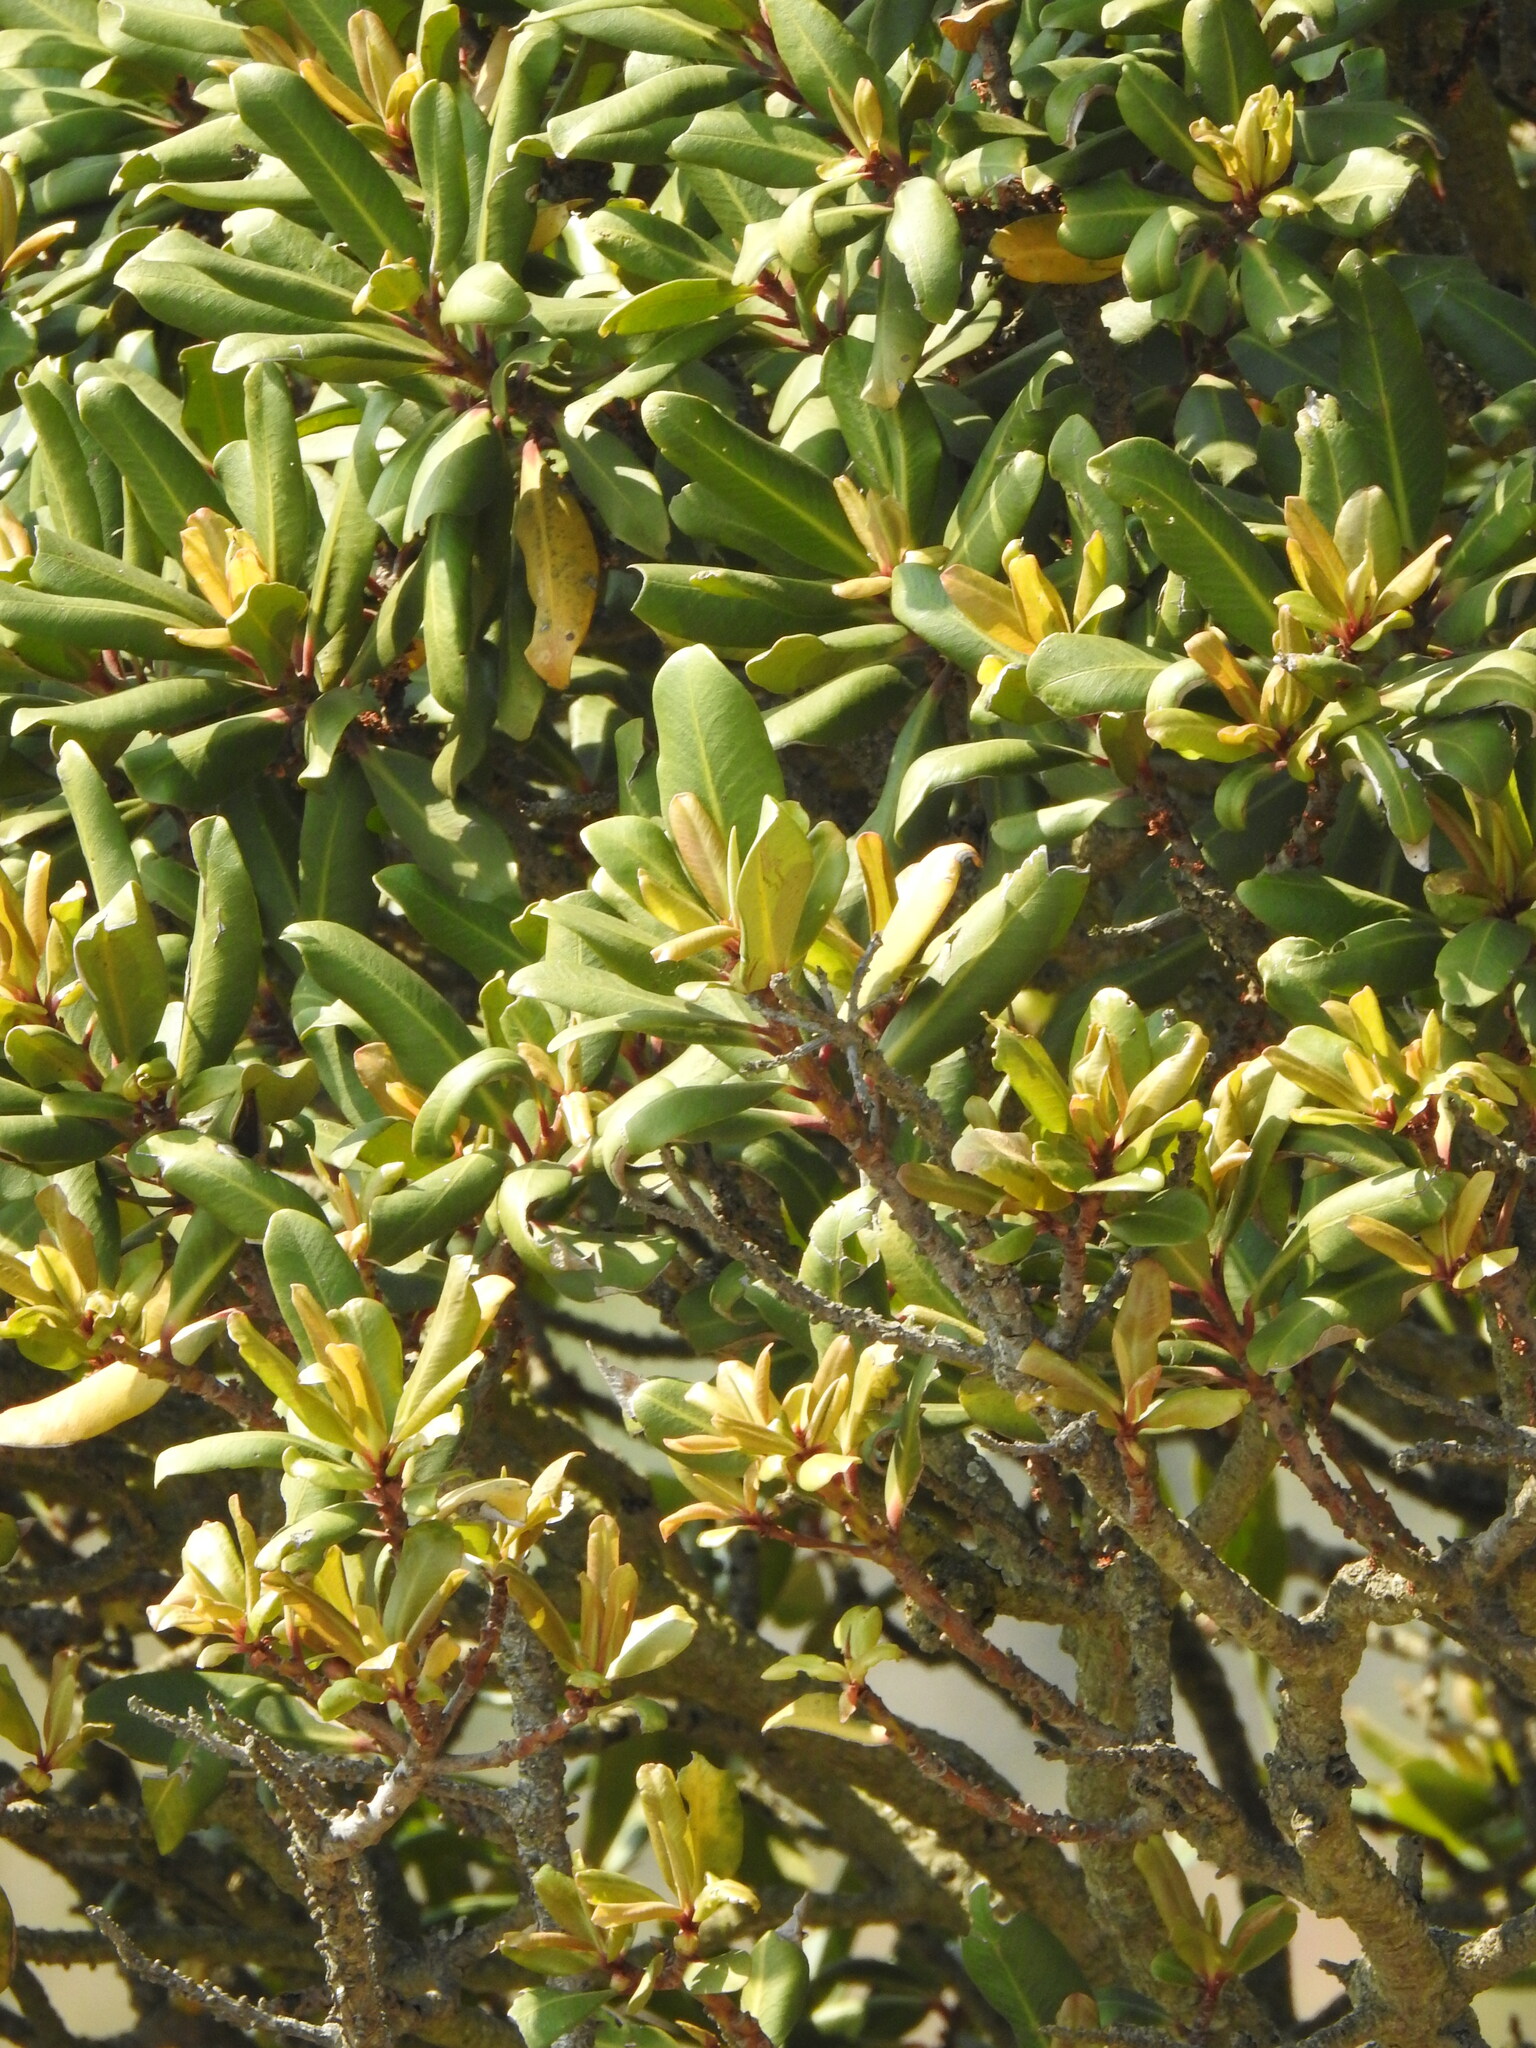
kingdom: Plantae
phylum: Tracheophyta
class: Magnoliopsida
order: Ericales
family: Primulaceae
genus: Myrsine
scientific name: Myrsine melanophloeos
